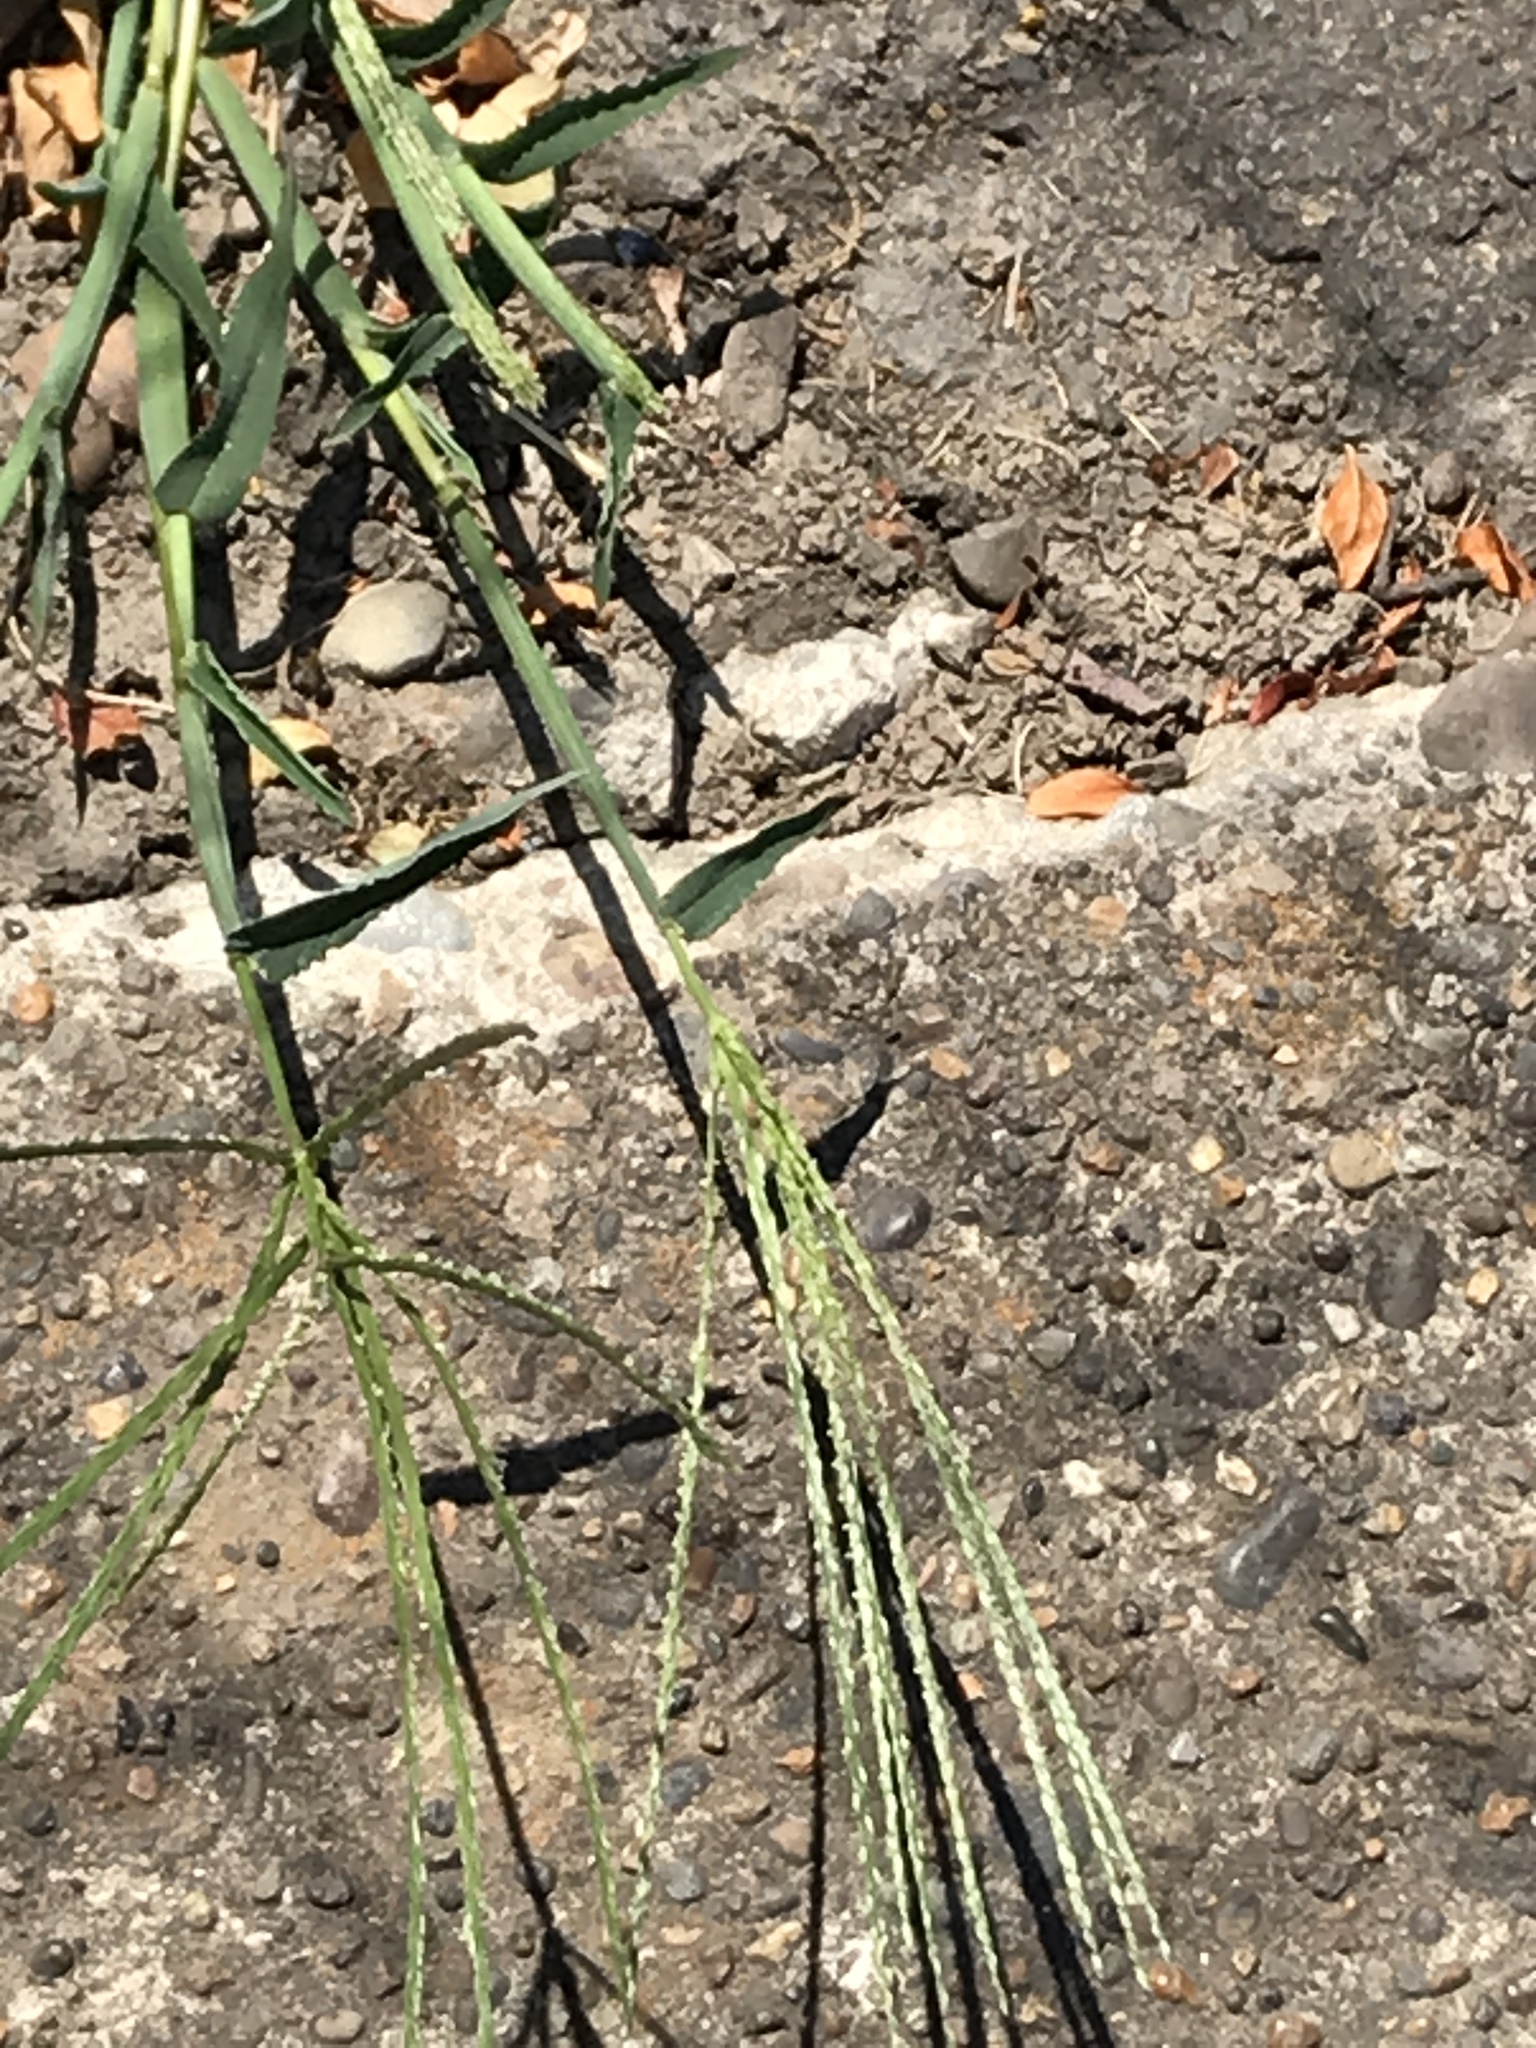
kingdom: Plantae
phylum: Tracheophyta
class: Liliopsida
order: Poales
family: Poaceae
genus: Digitaria
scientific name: Digitaria sanguinalis
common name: Hairy crabgrass
